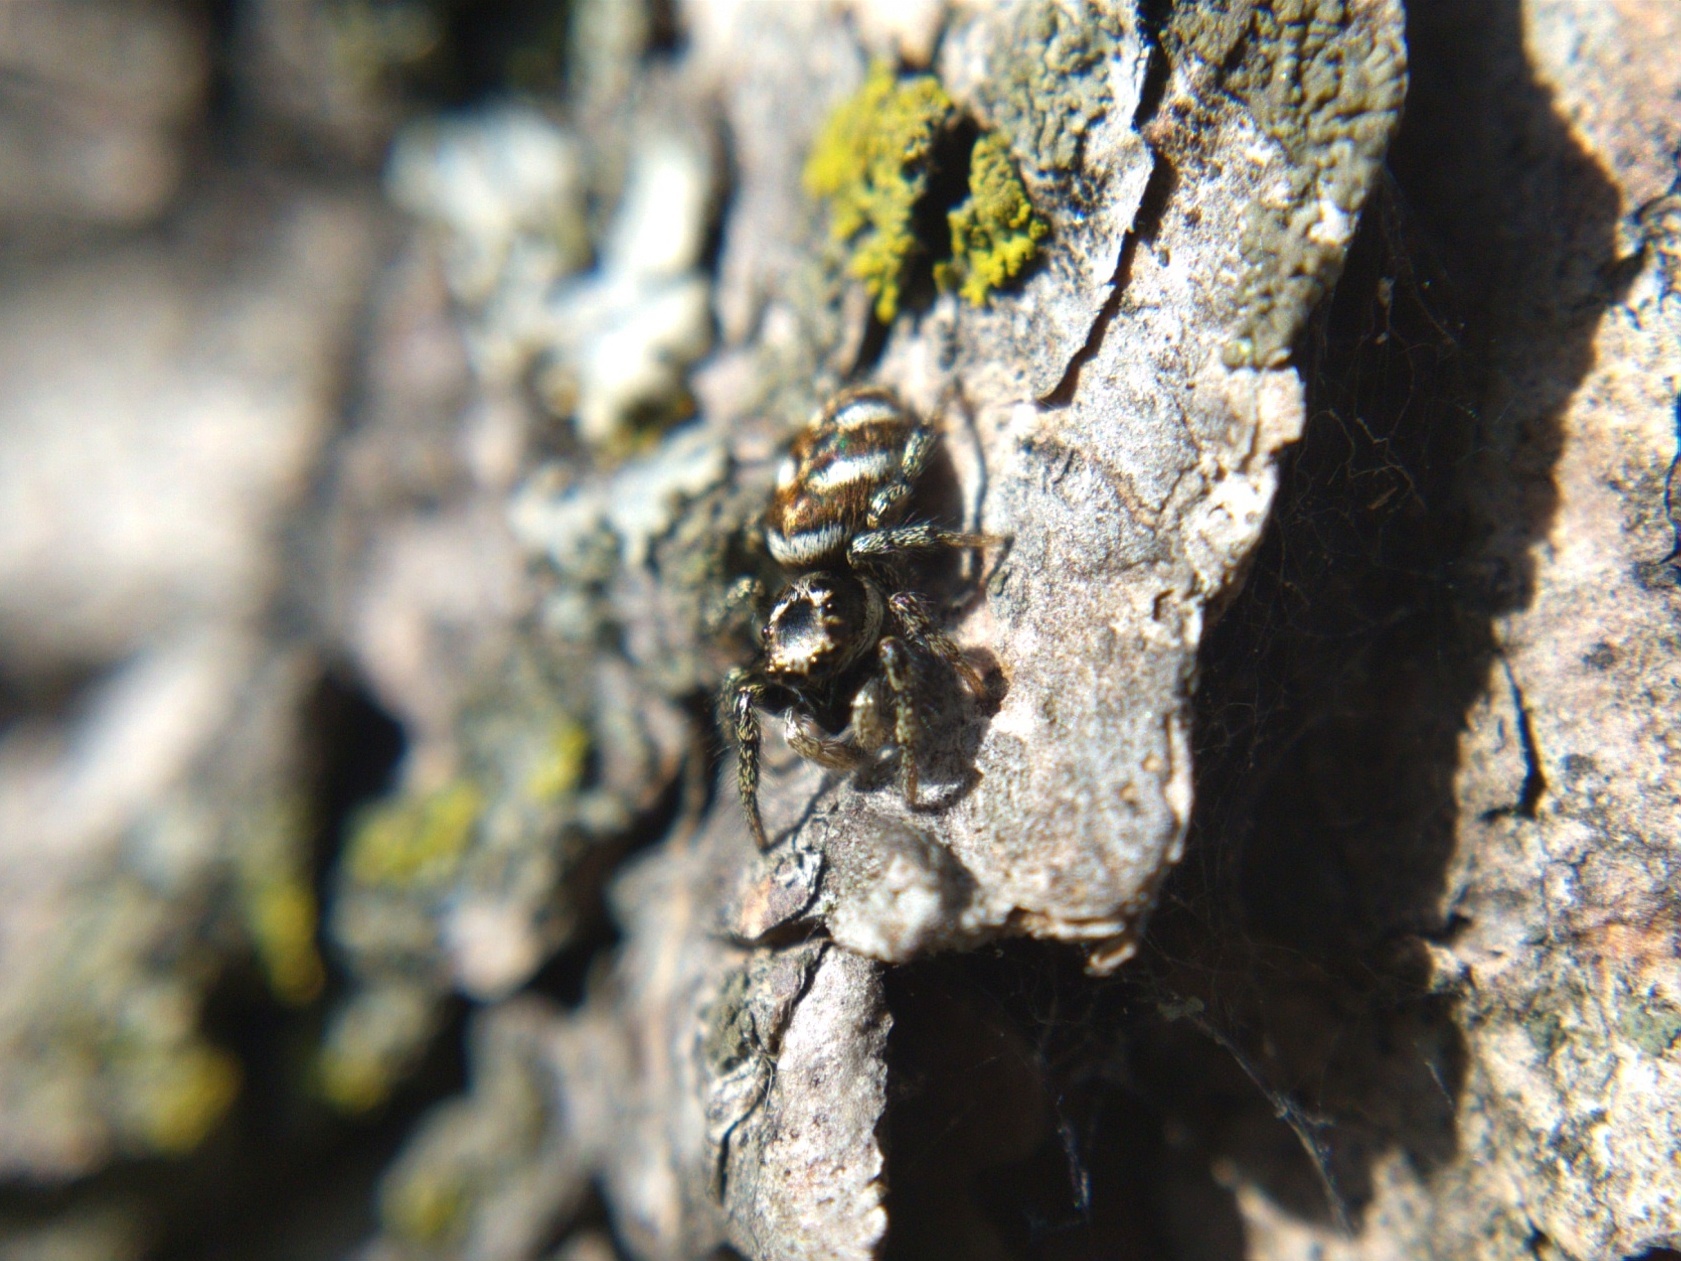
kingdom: Animalia
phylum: Arthropoda
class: Arachnida
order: Araneae
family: Salticidae
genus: Salticus
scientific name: Salticus scenicus
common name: Zebra jumper
